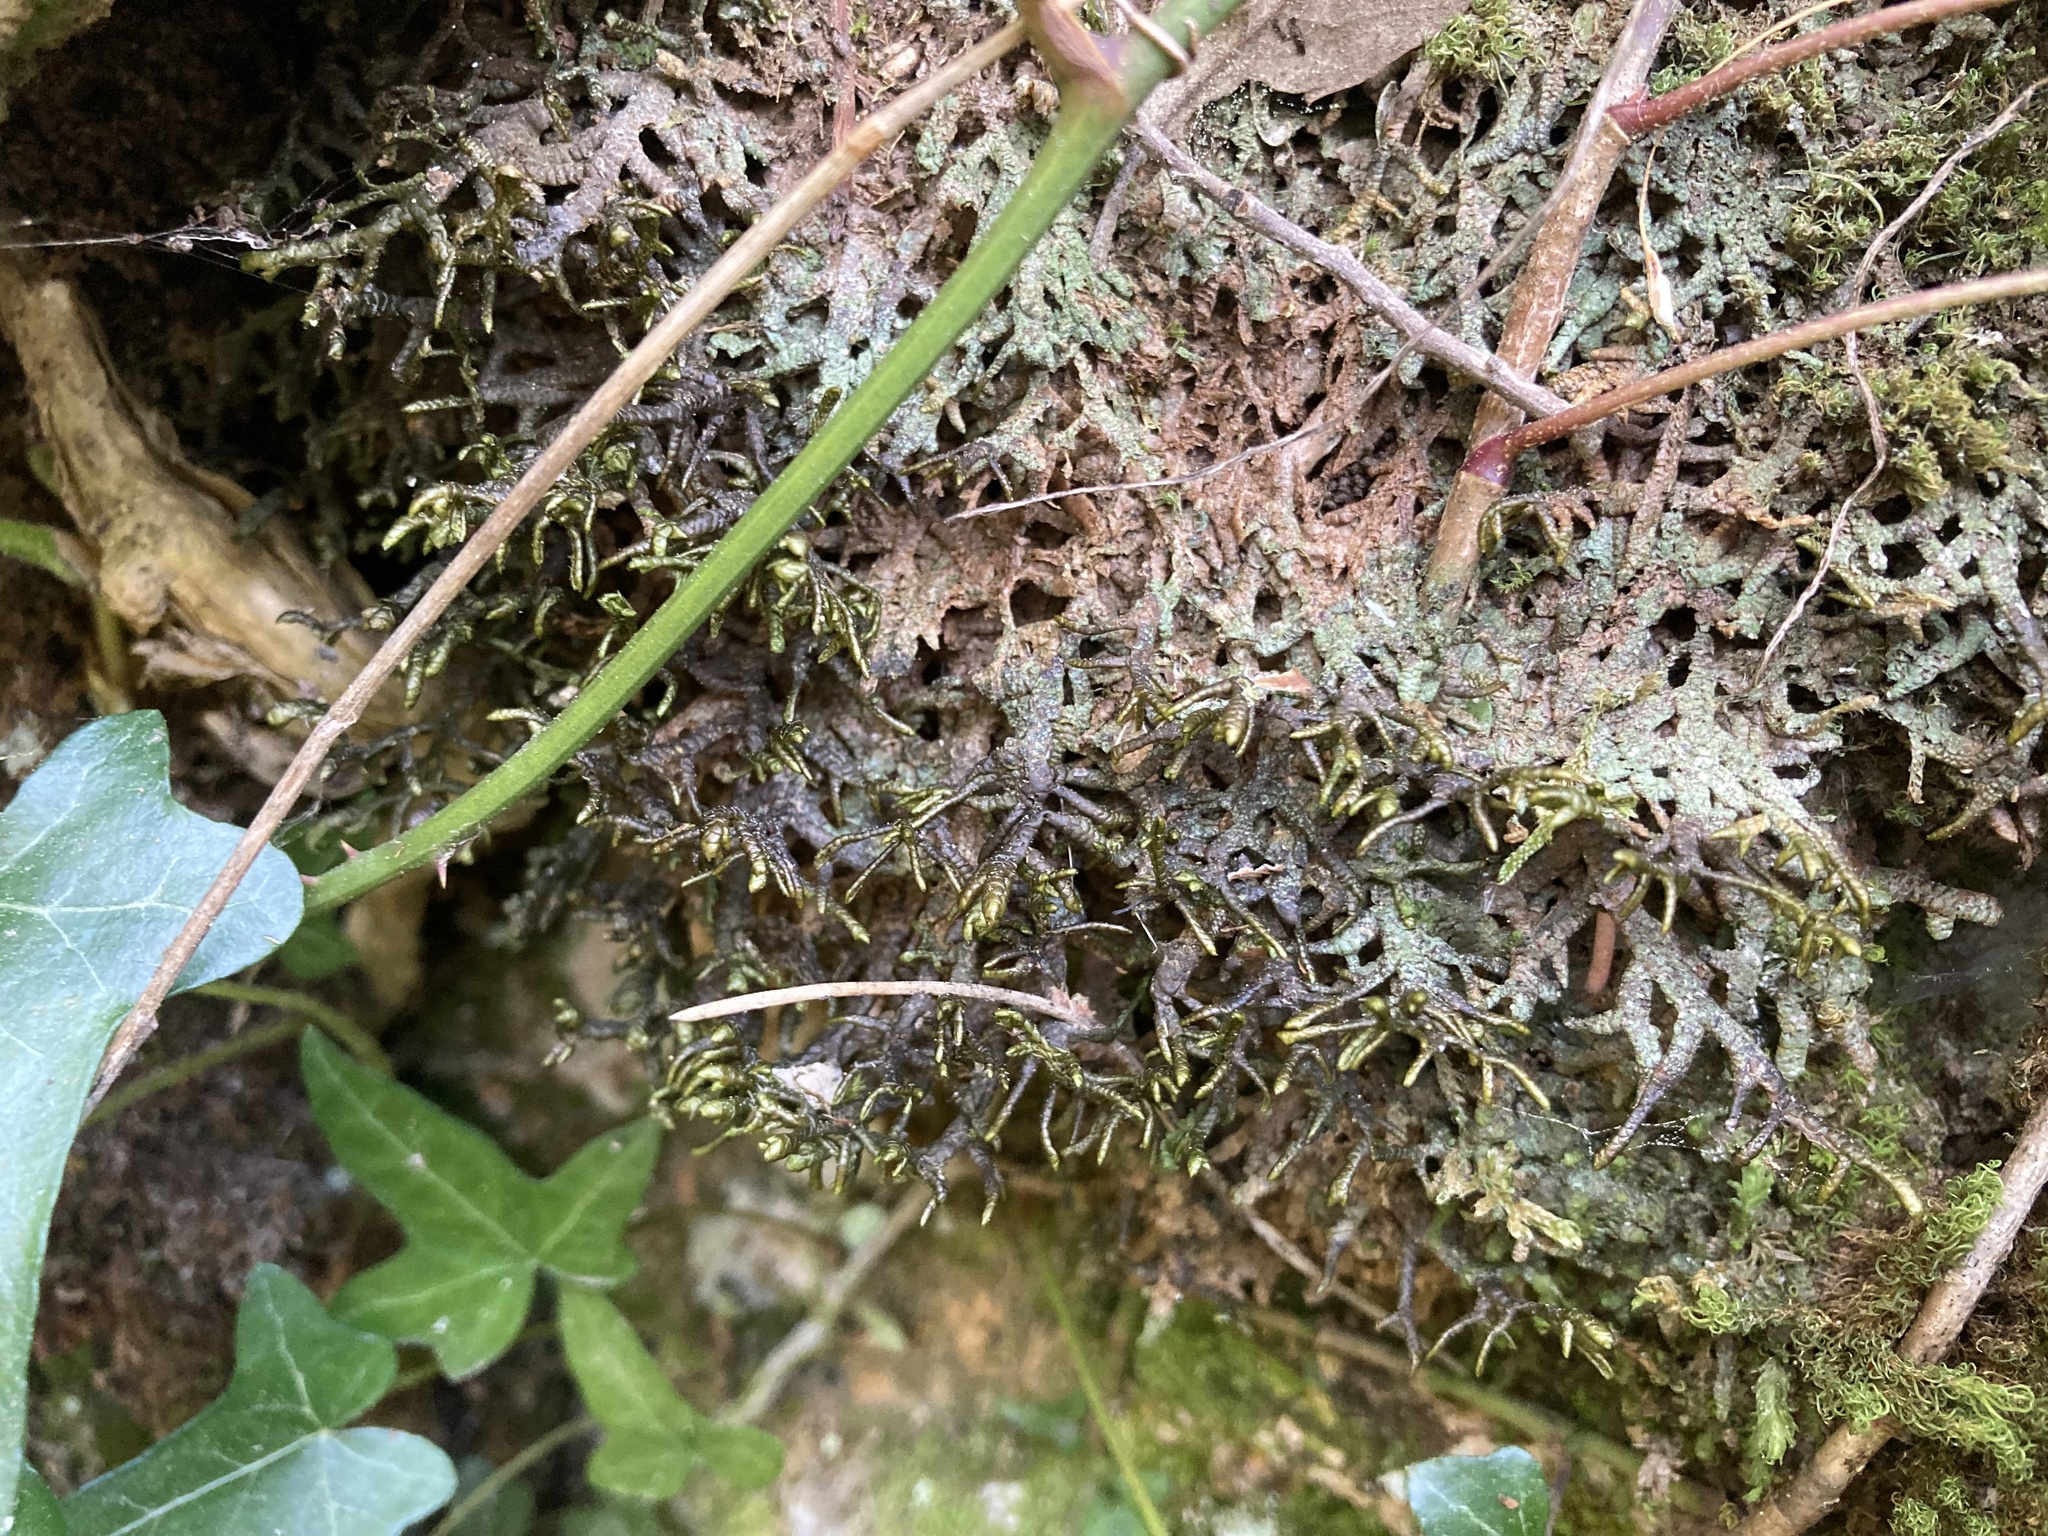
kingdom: Plantae
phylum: Marchantiophyta
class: Jungermanniopsida
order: Porellales
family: Porellaceae
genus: Porella
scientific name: Porella arboris-vitae
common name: Bitter scalewort
